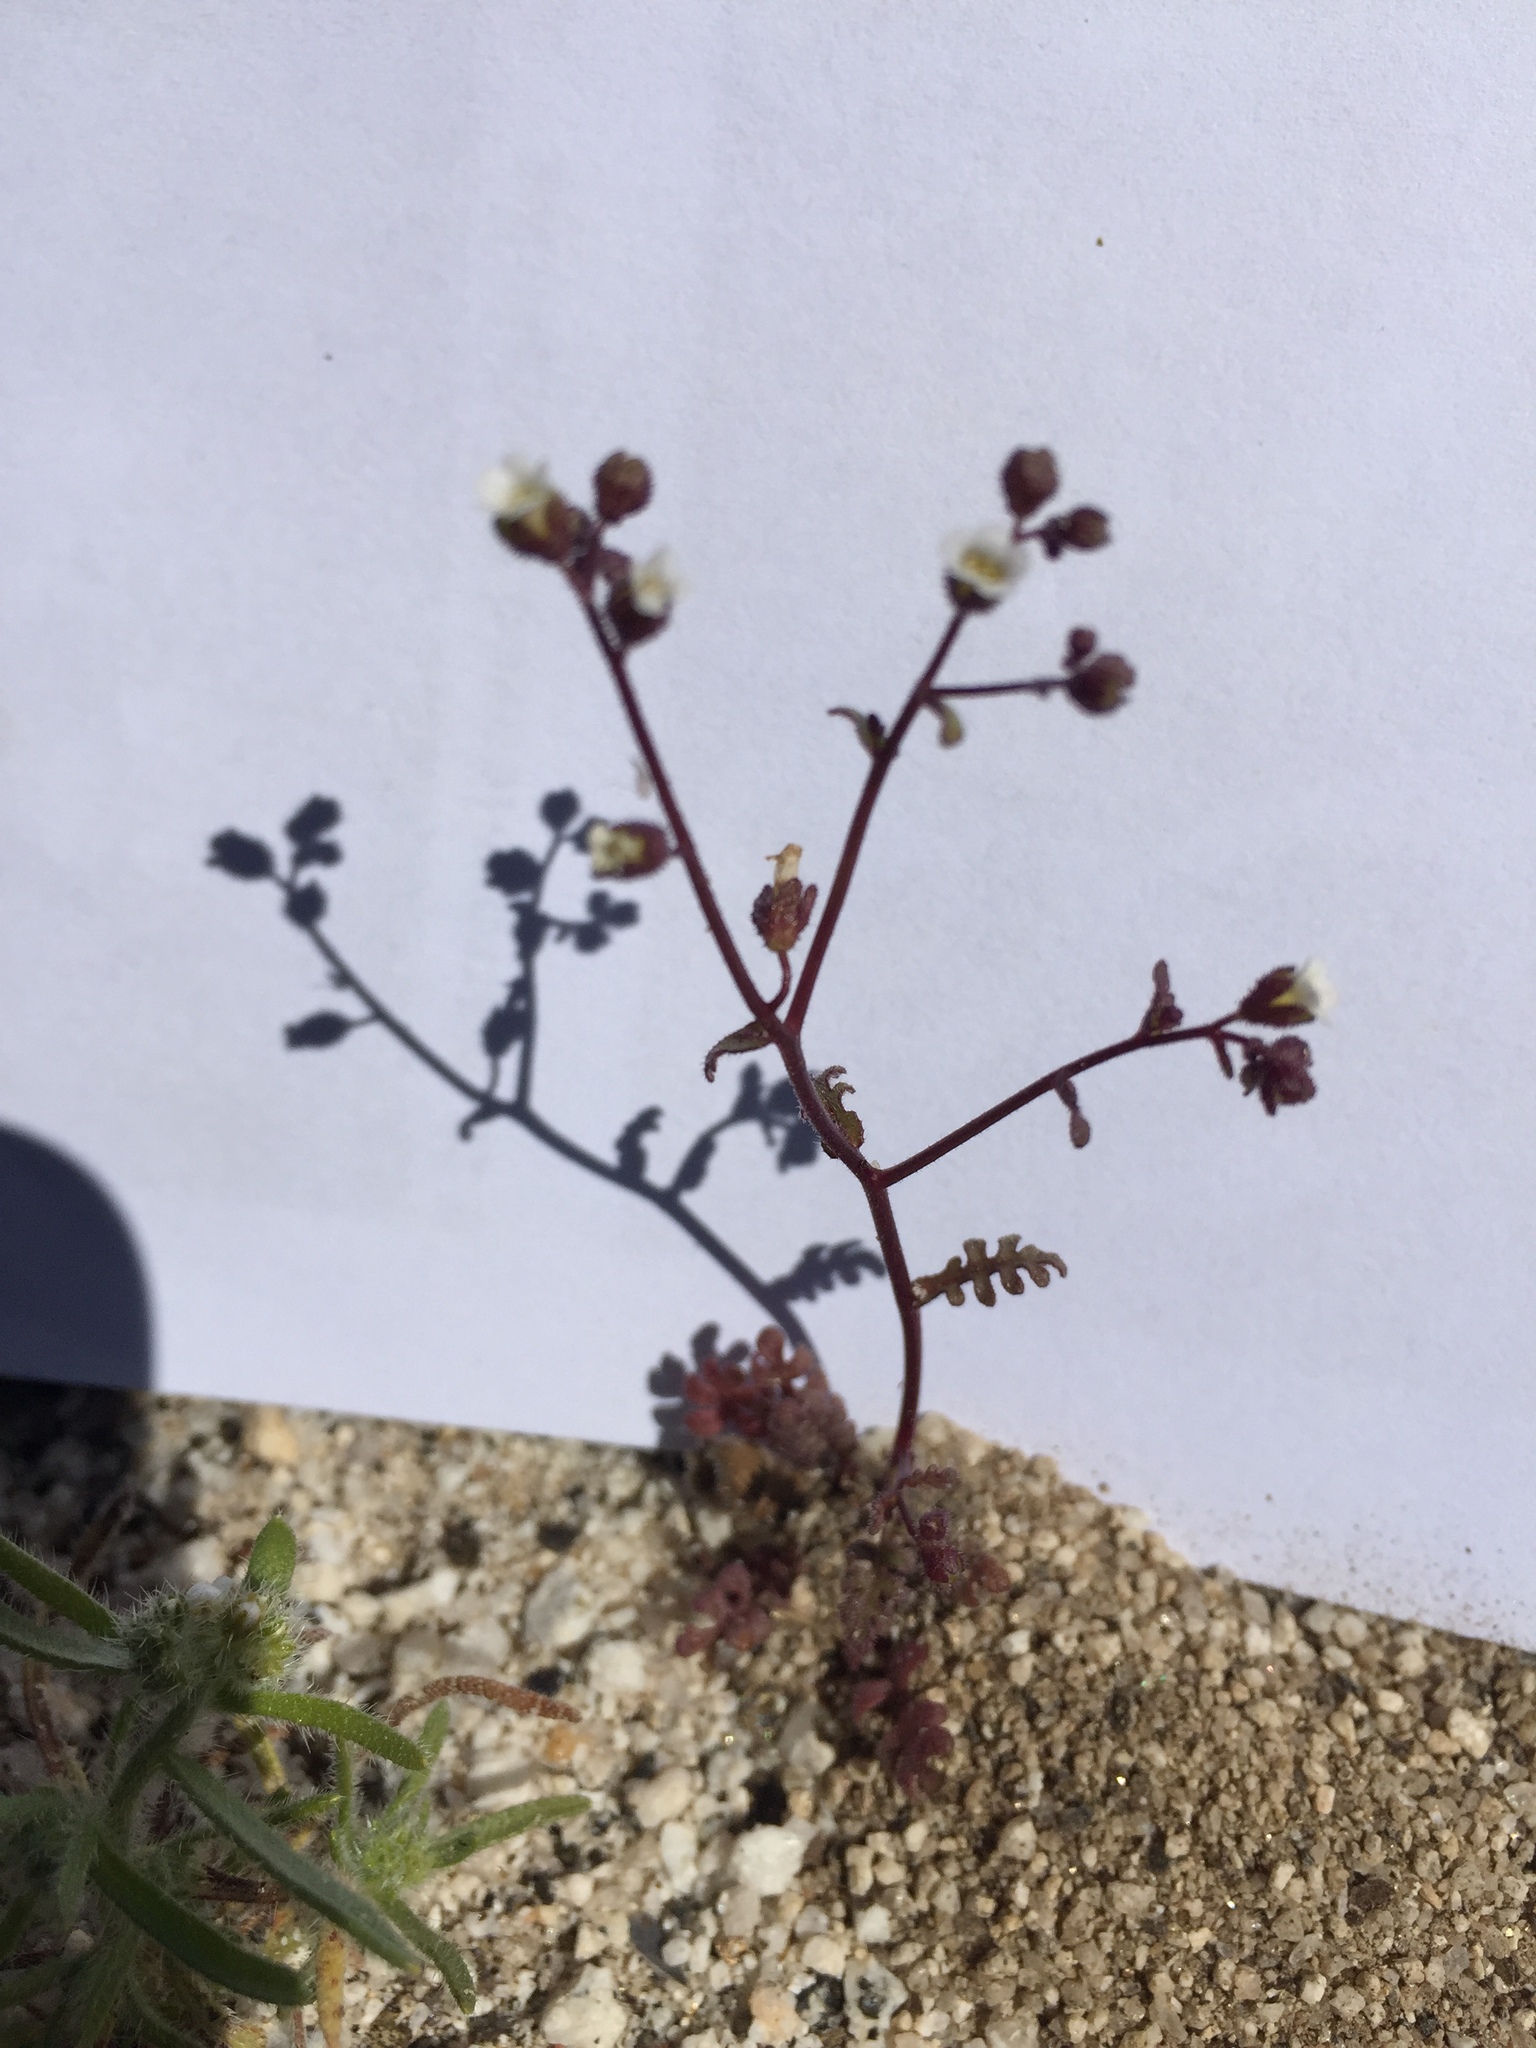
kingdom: Plantae
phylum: Tracheophyta
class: Magnoliopsida
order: Boraginales
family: Hydrophyllaceae
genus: Eucrypta
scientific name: Eucrypta micrantha
